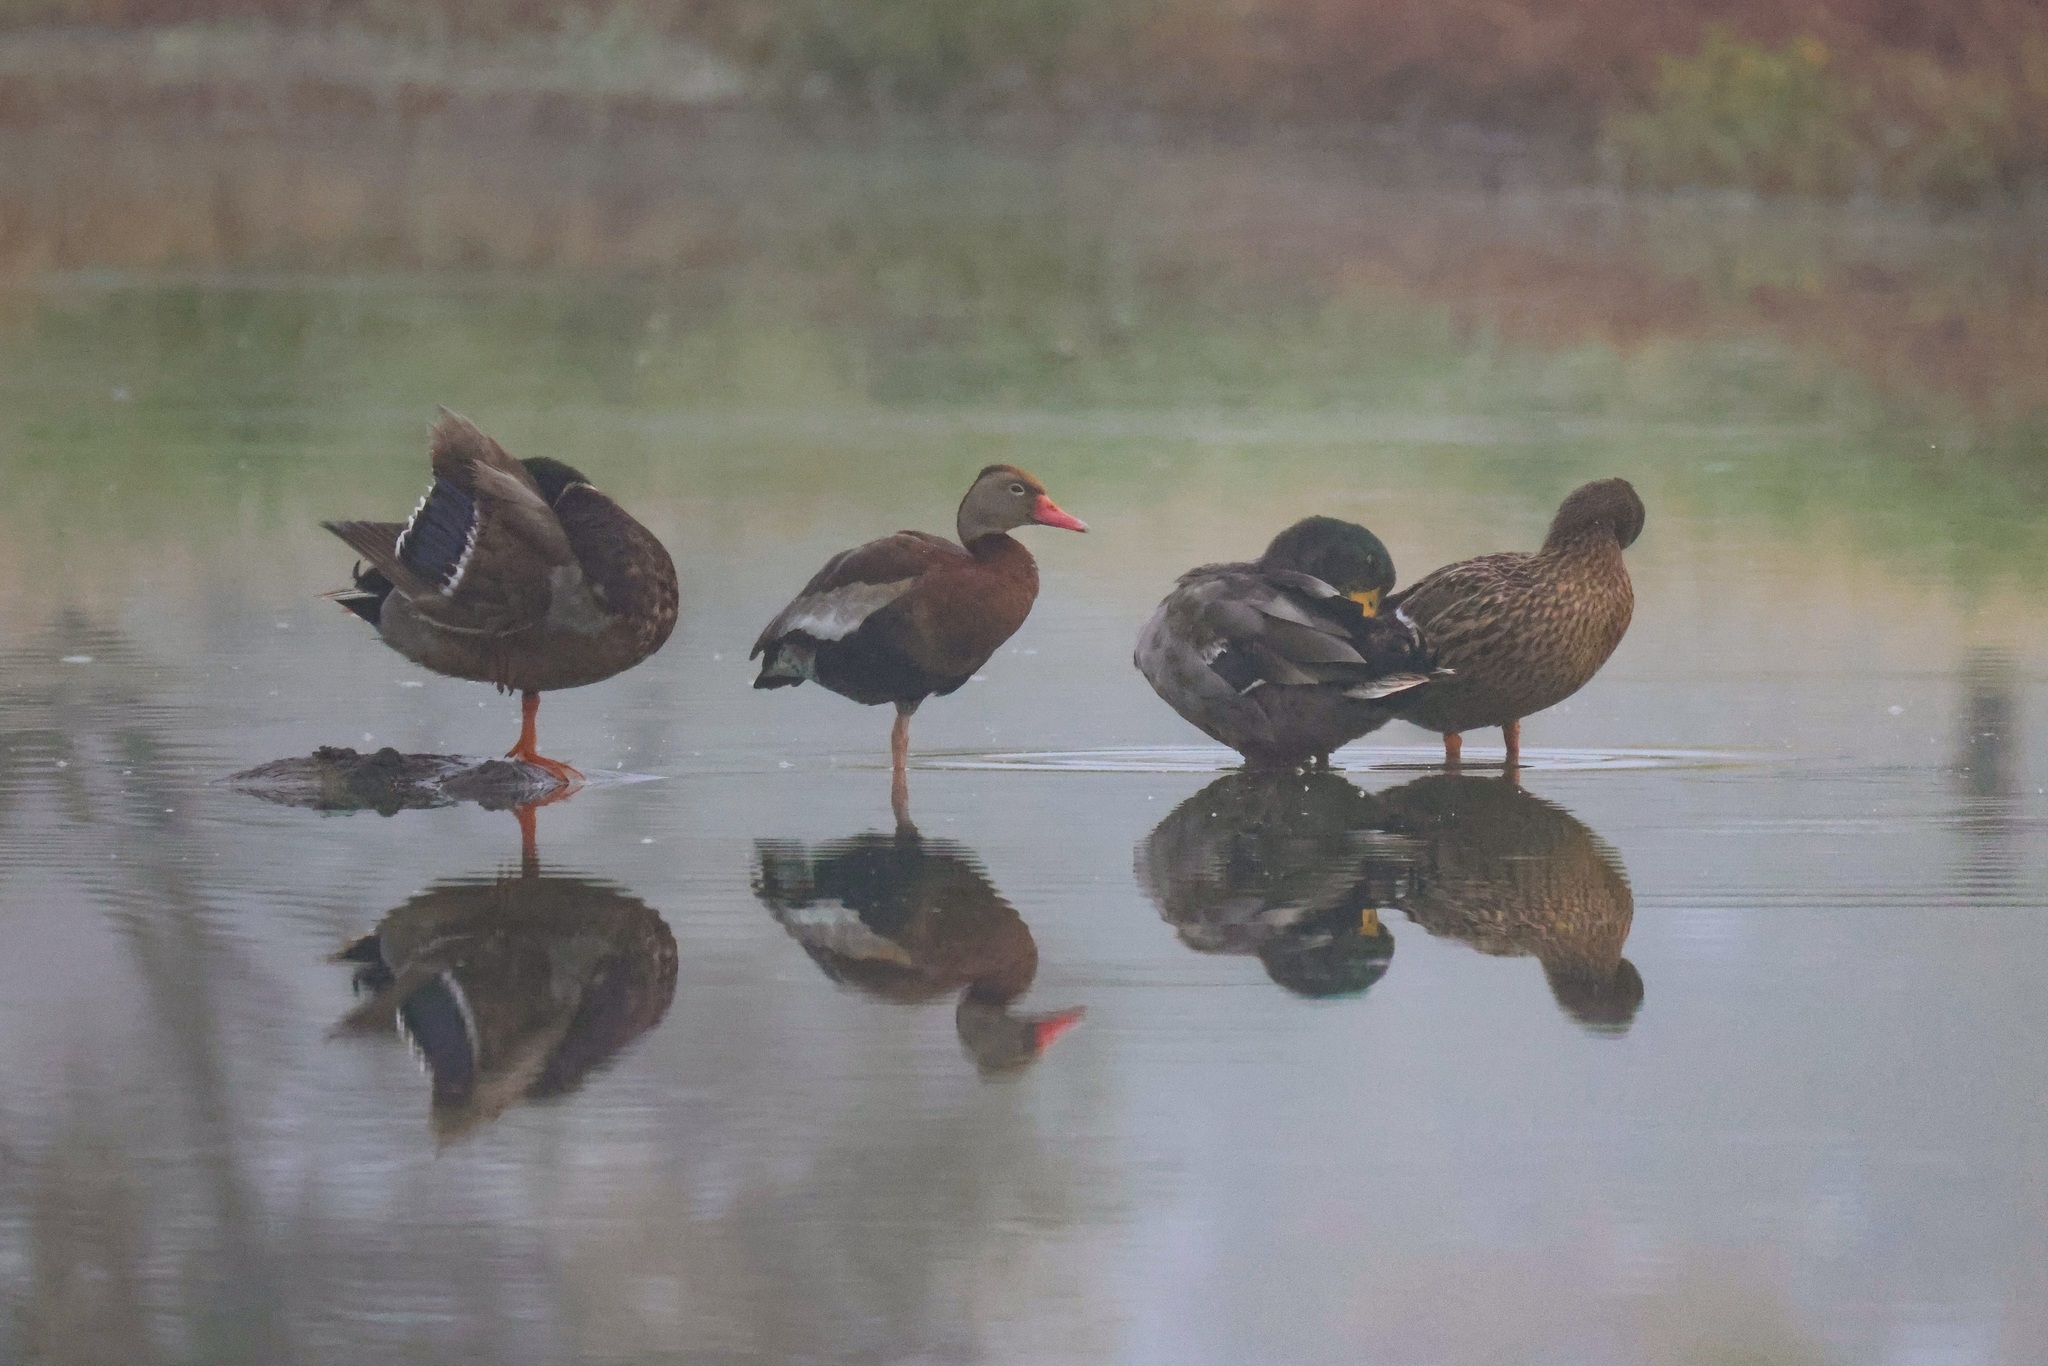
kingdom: Animalia
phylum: Chordata
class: Aves
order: Anseriformes
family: Anatidae
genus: Anas
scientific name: Anas platyrhynchos
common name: Mallard
